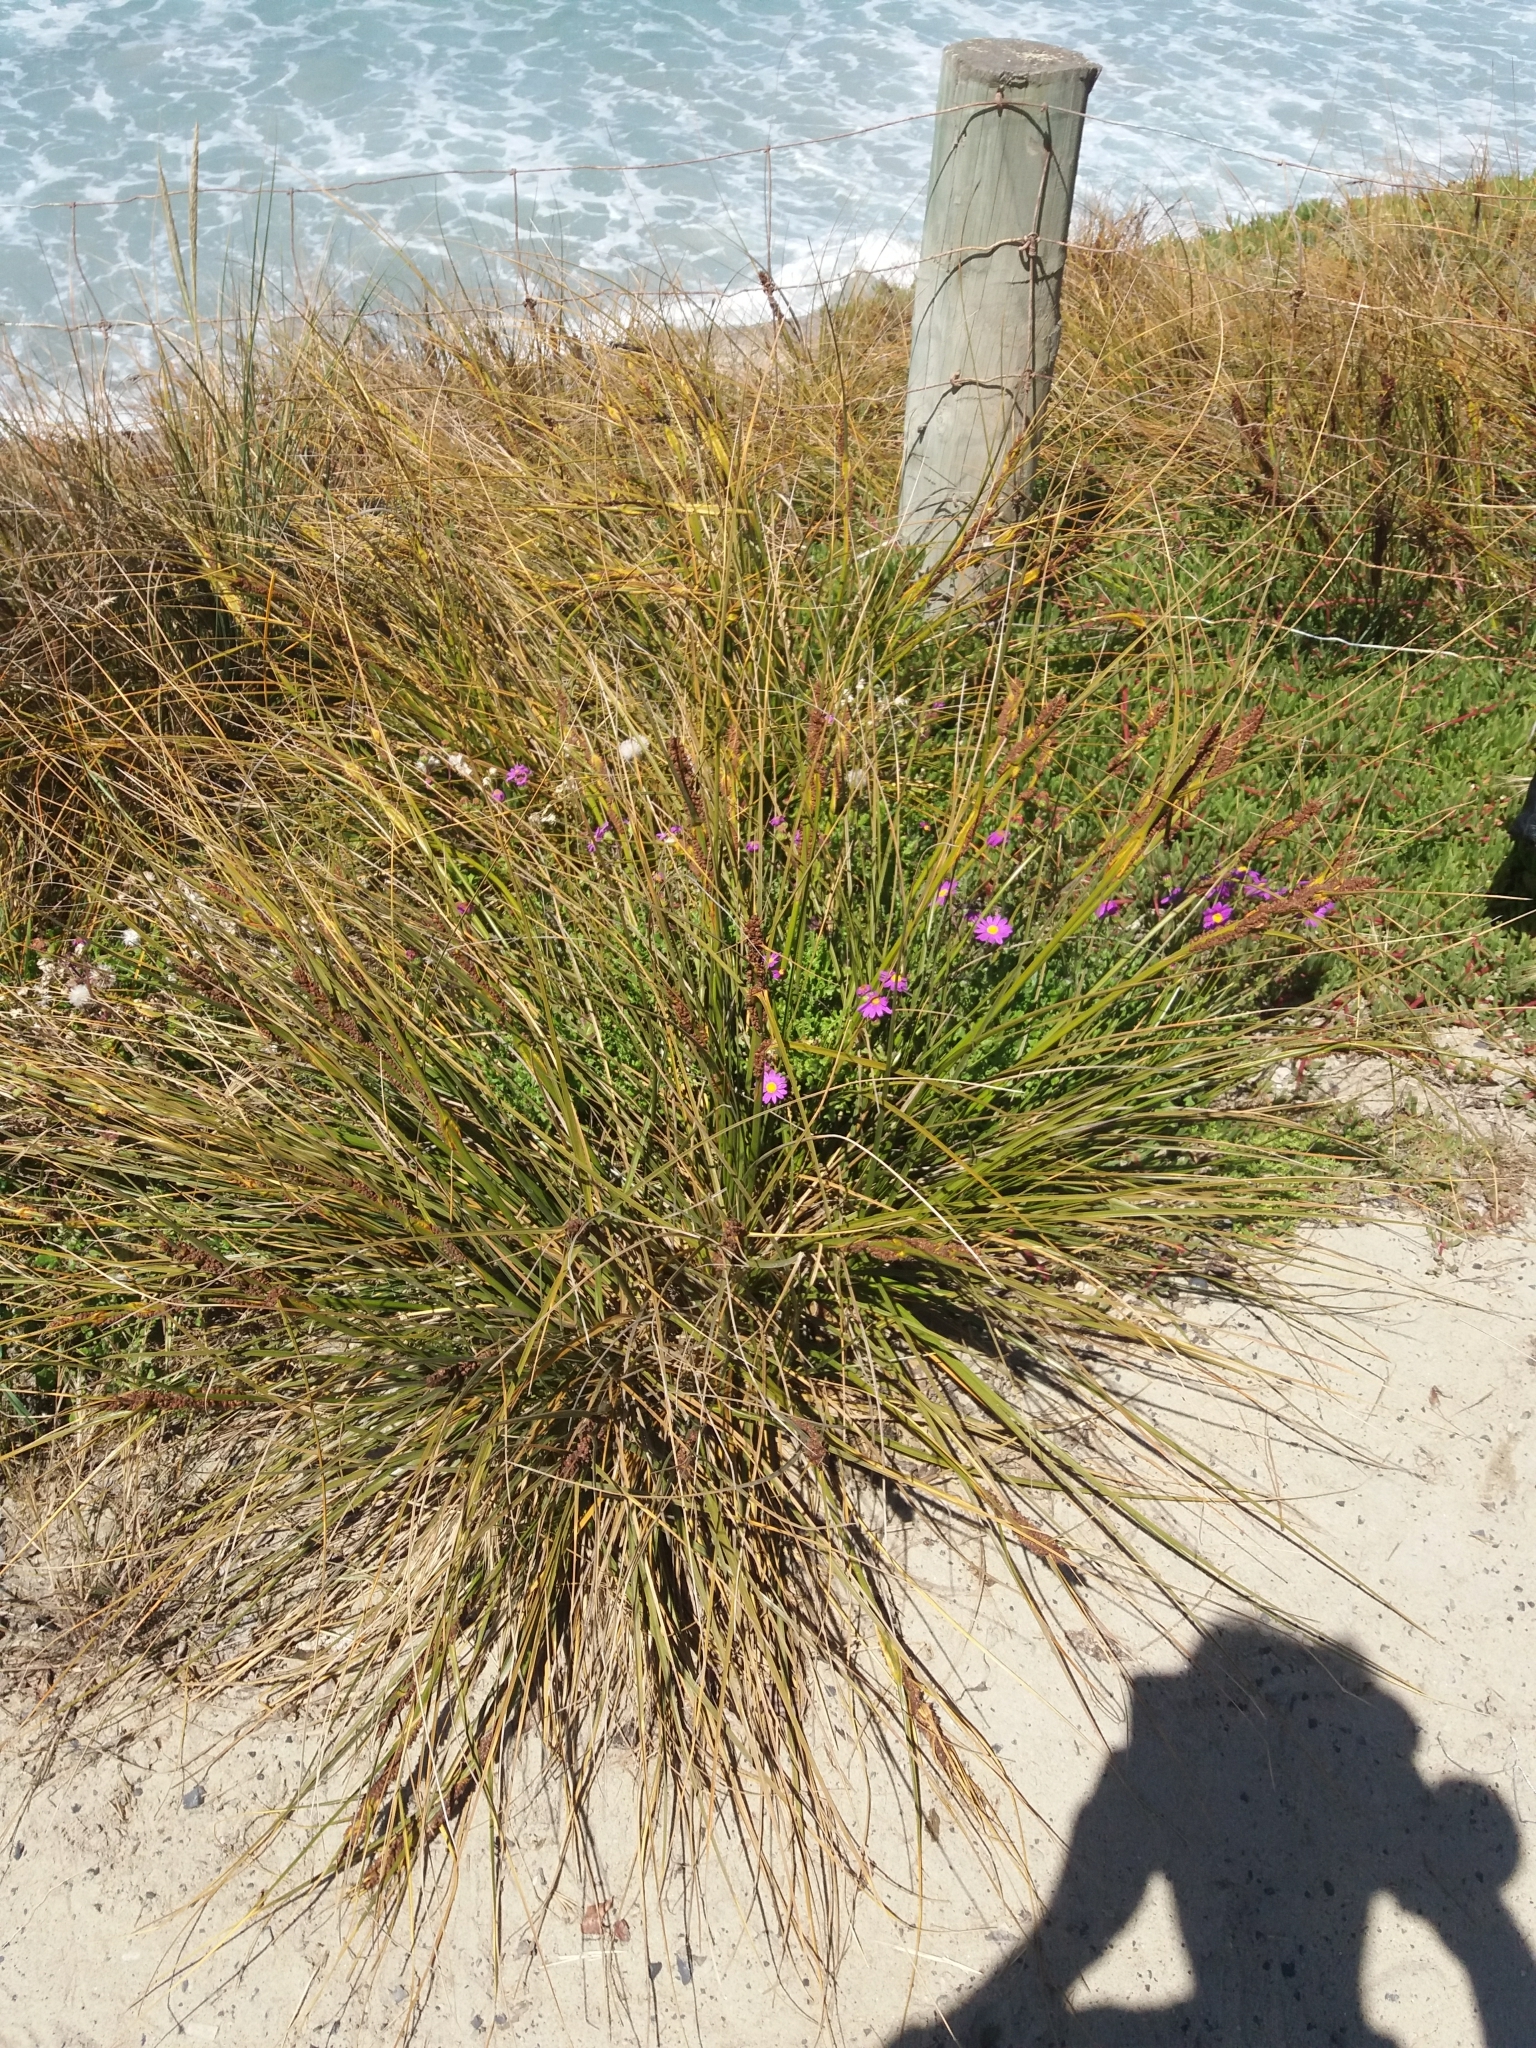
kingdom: Plantae
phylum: Tracheophyta
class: Liliopsida
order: Poales
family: Cyperaceae
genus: Ficinia
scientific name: Ficinia nodosa
